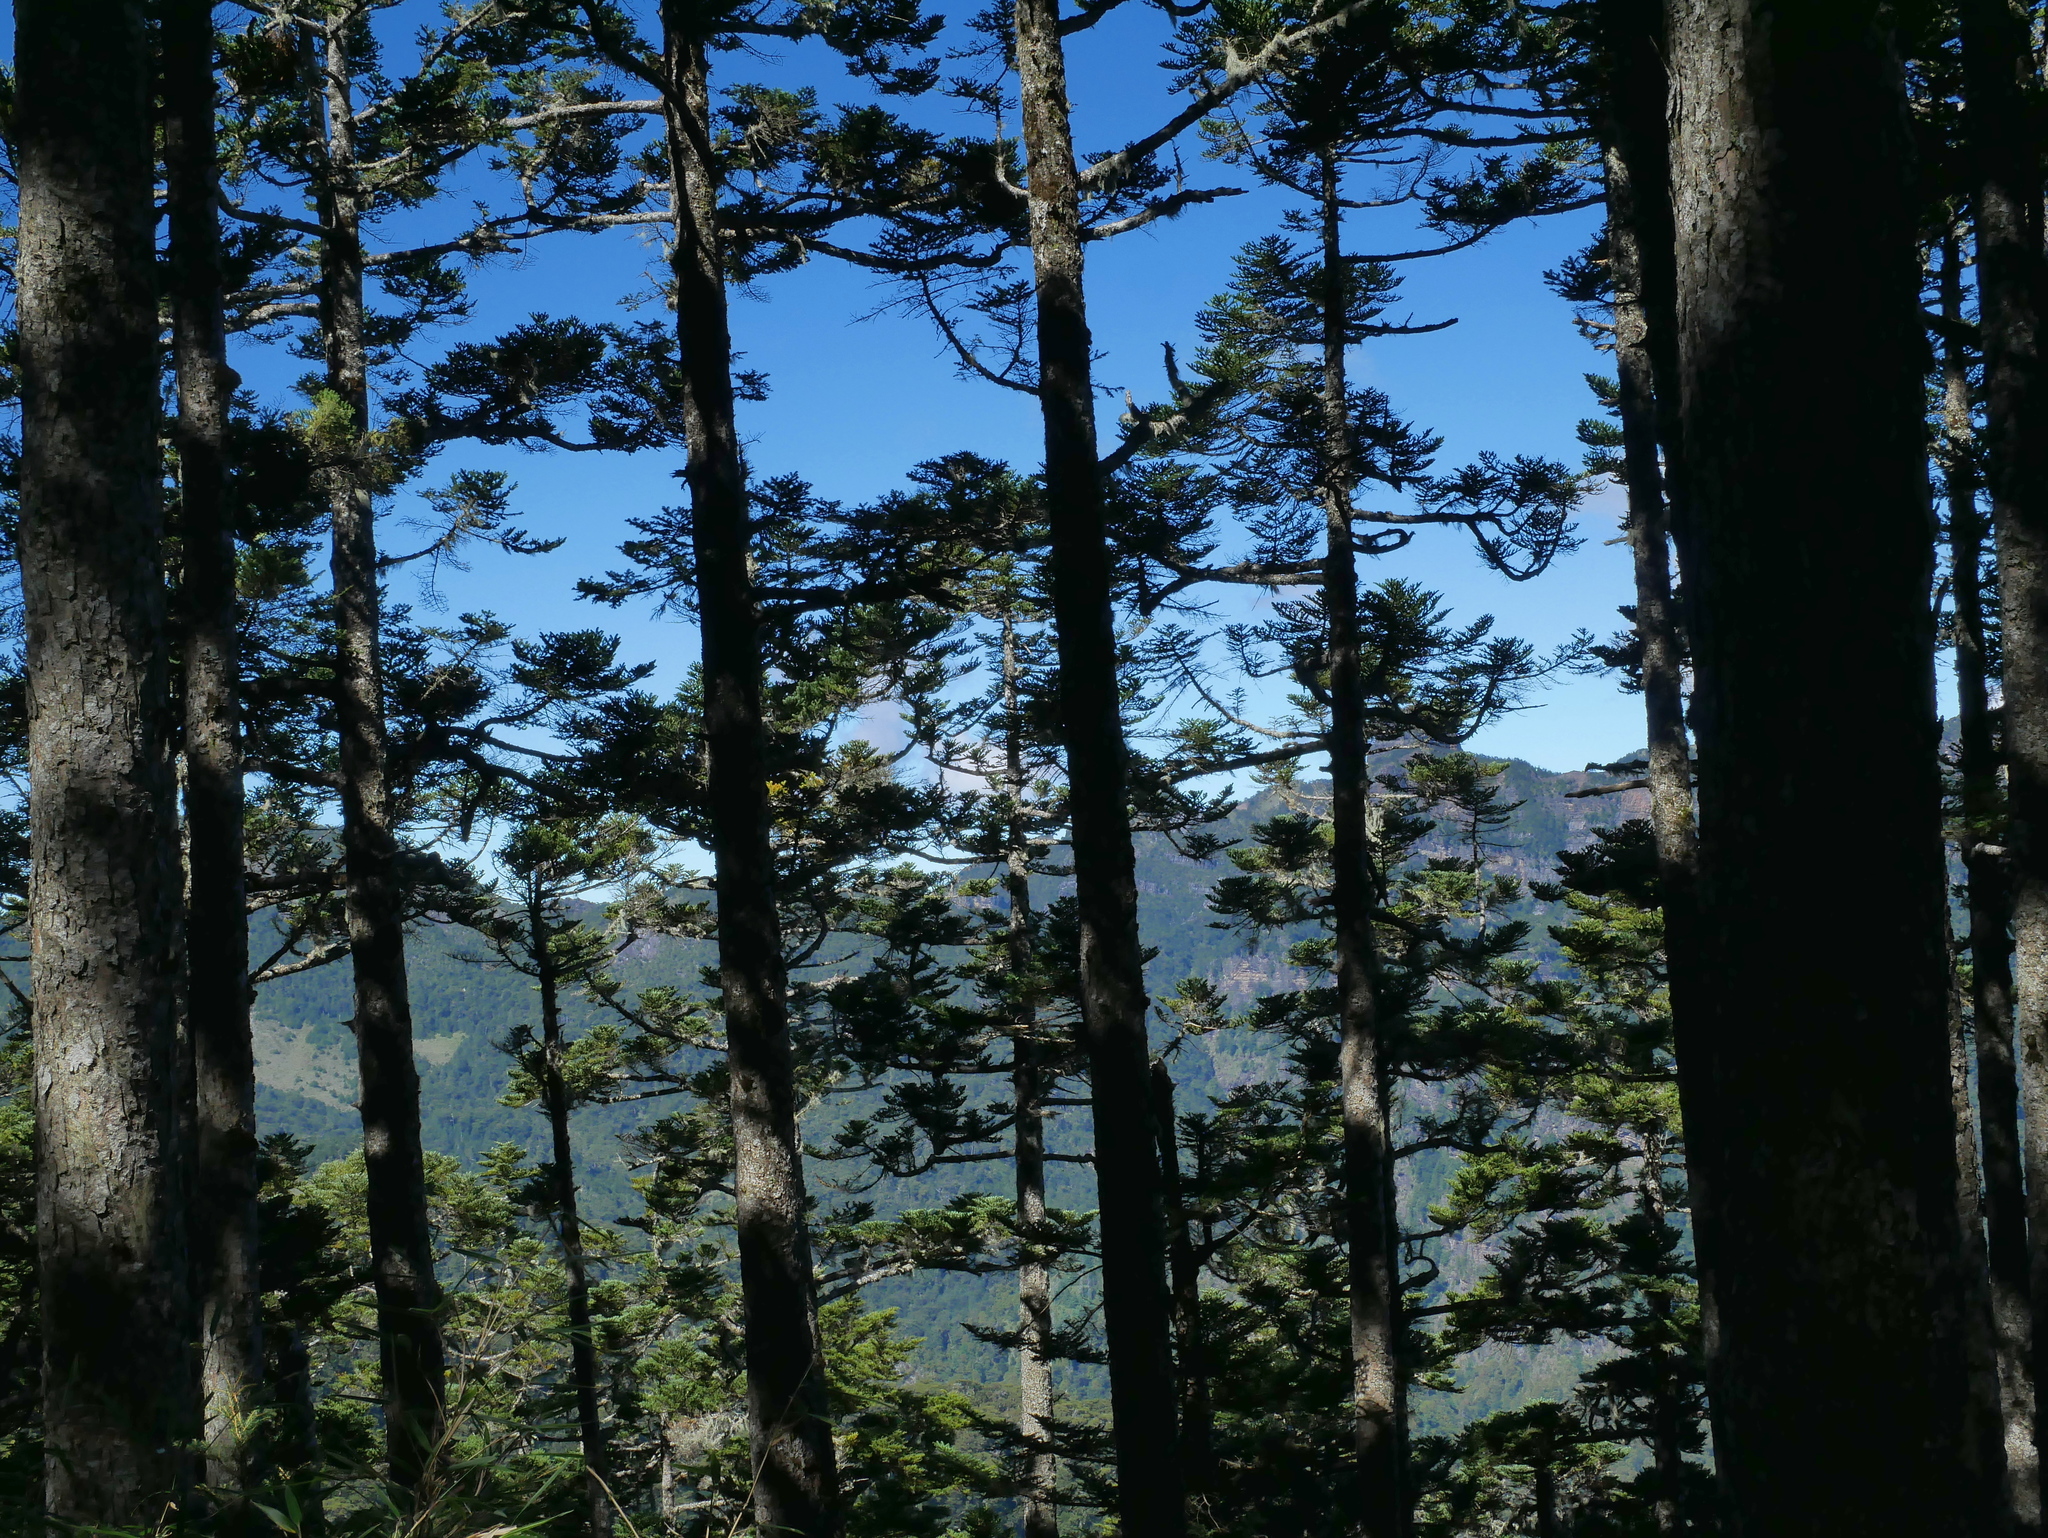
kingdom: Plantae
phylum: Tracheophyta
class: Pinopsida
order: Pinales
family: Pinaceae
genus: Abies
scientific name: Abies kawakamii
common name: Taiwan fir
